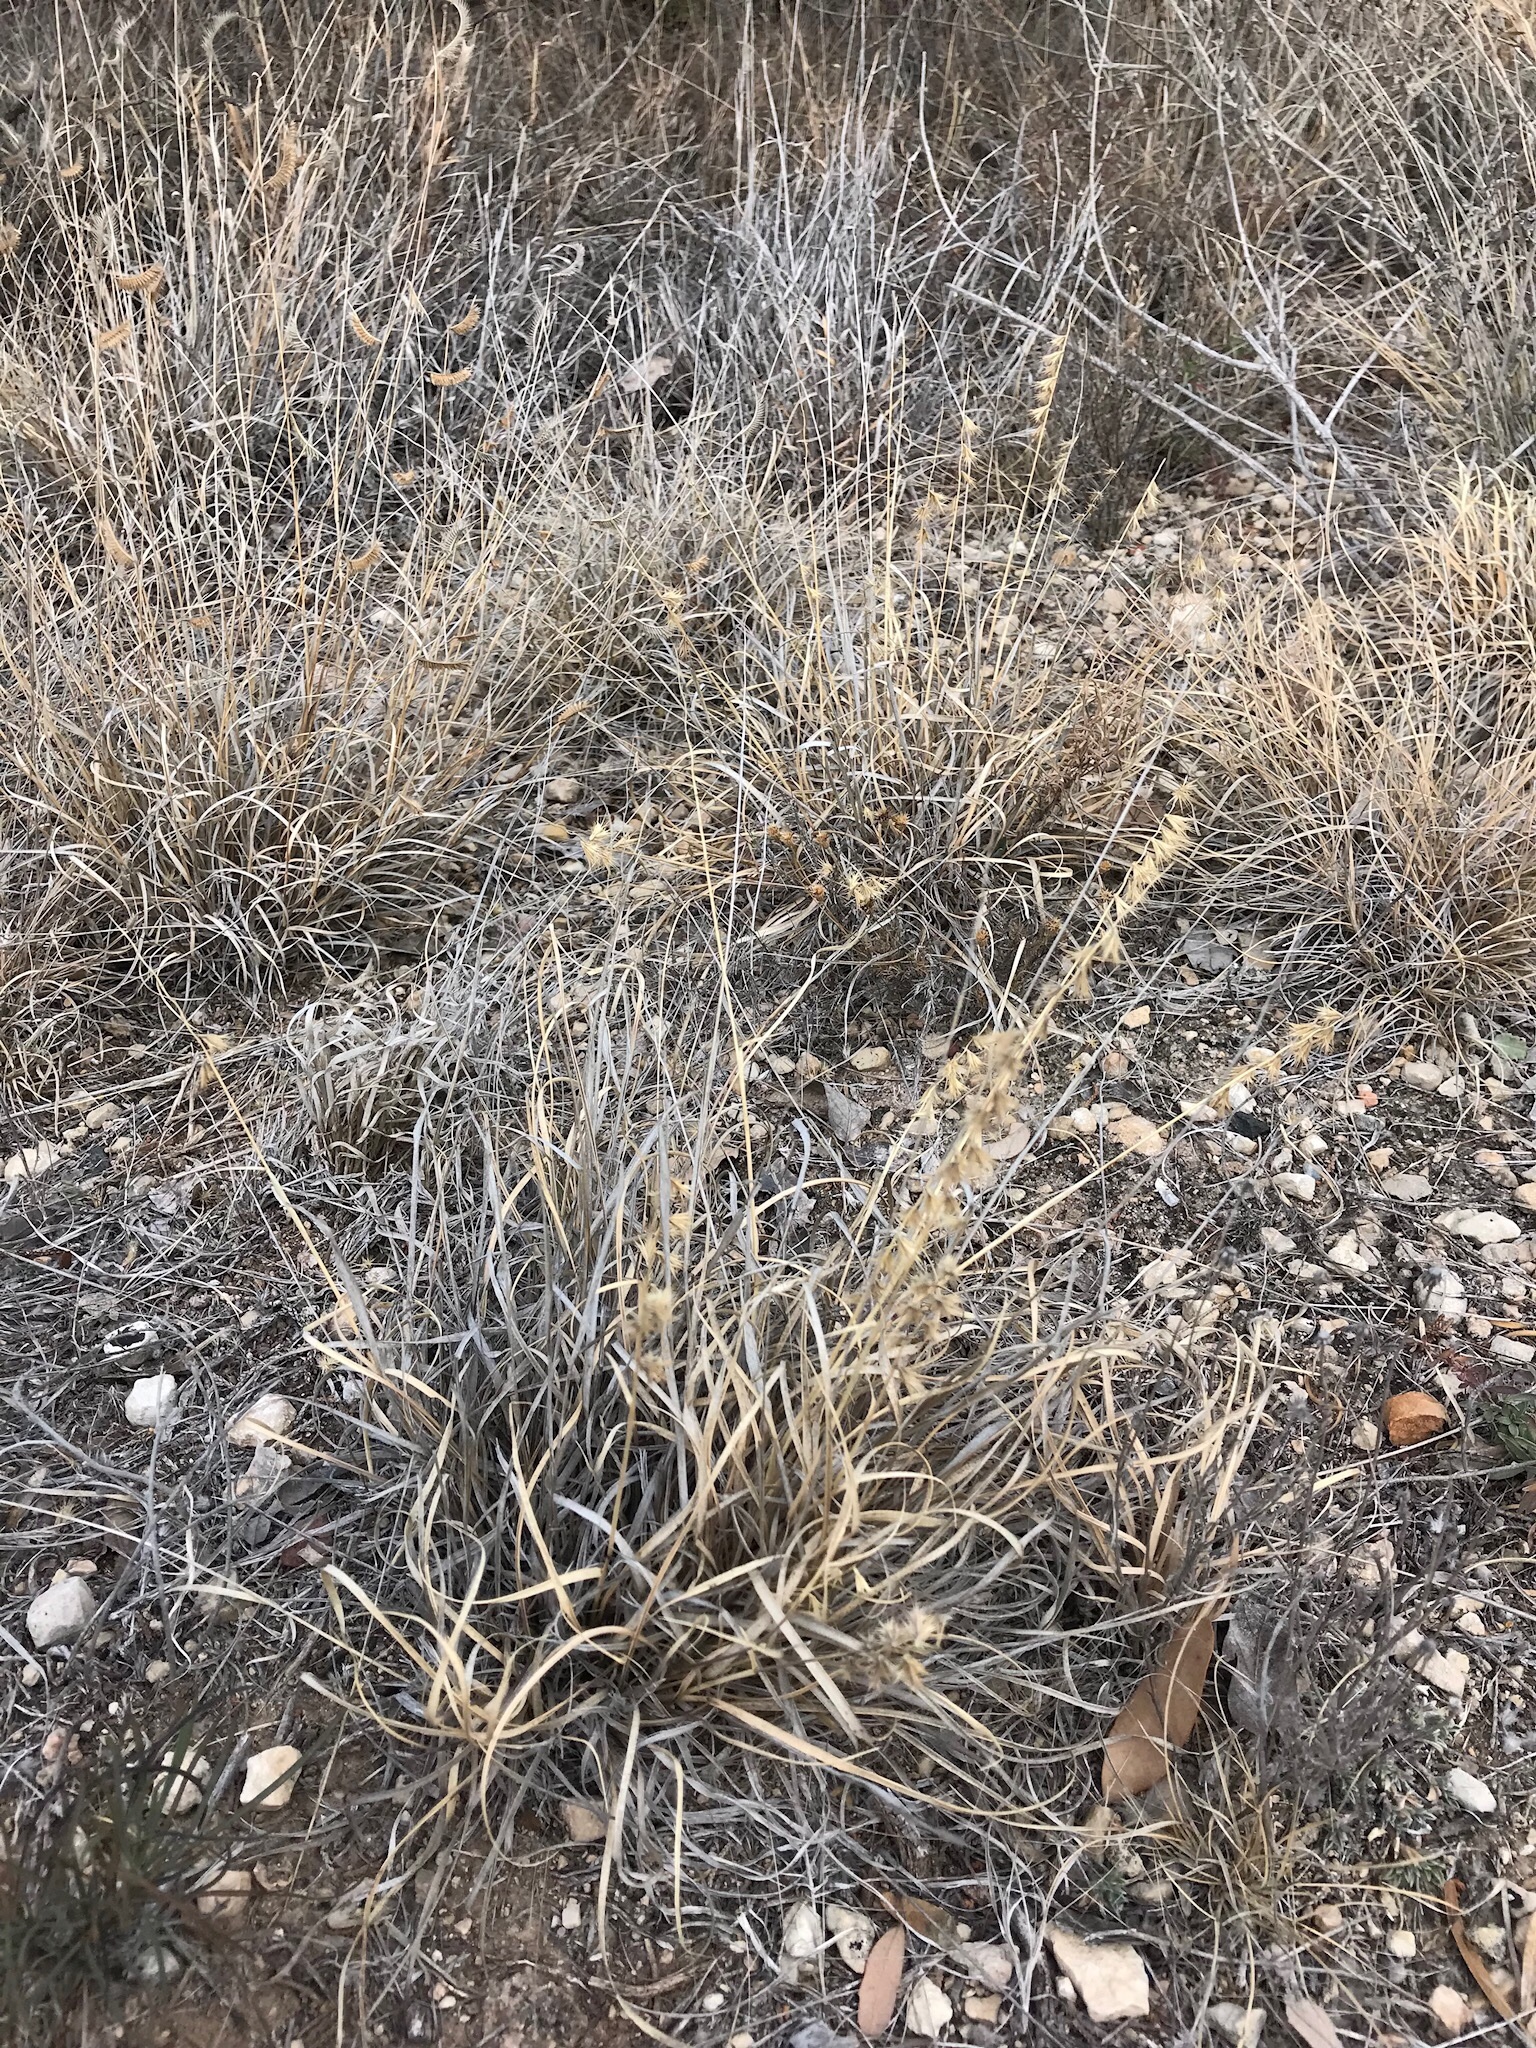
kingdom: Plantae
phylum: Tracheophyta
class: Liliopsida
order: Poales
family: Poaceae
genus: Bouteloua
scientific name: Bouteloua rigidiseta
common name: Texas grama
